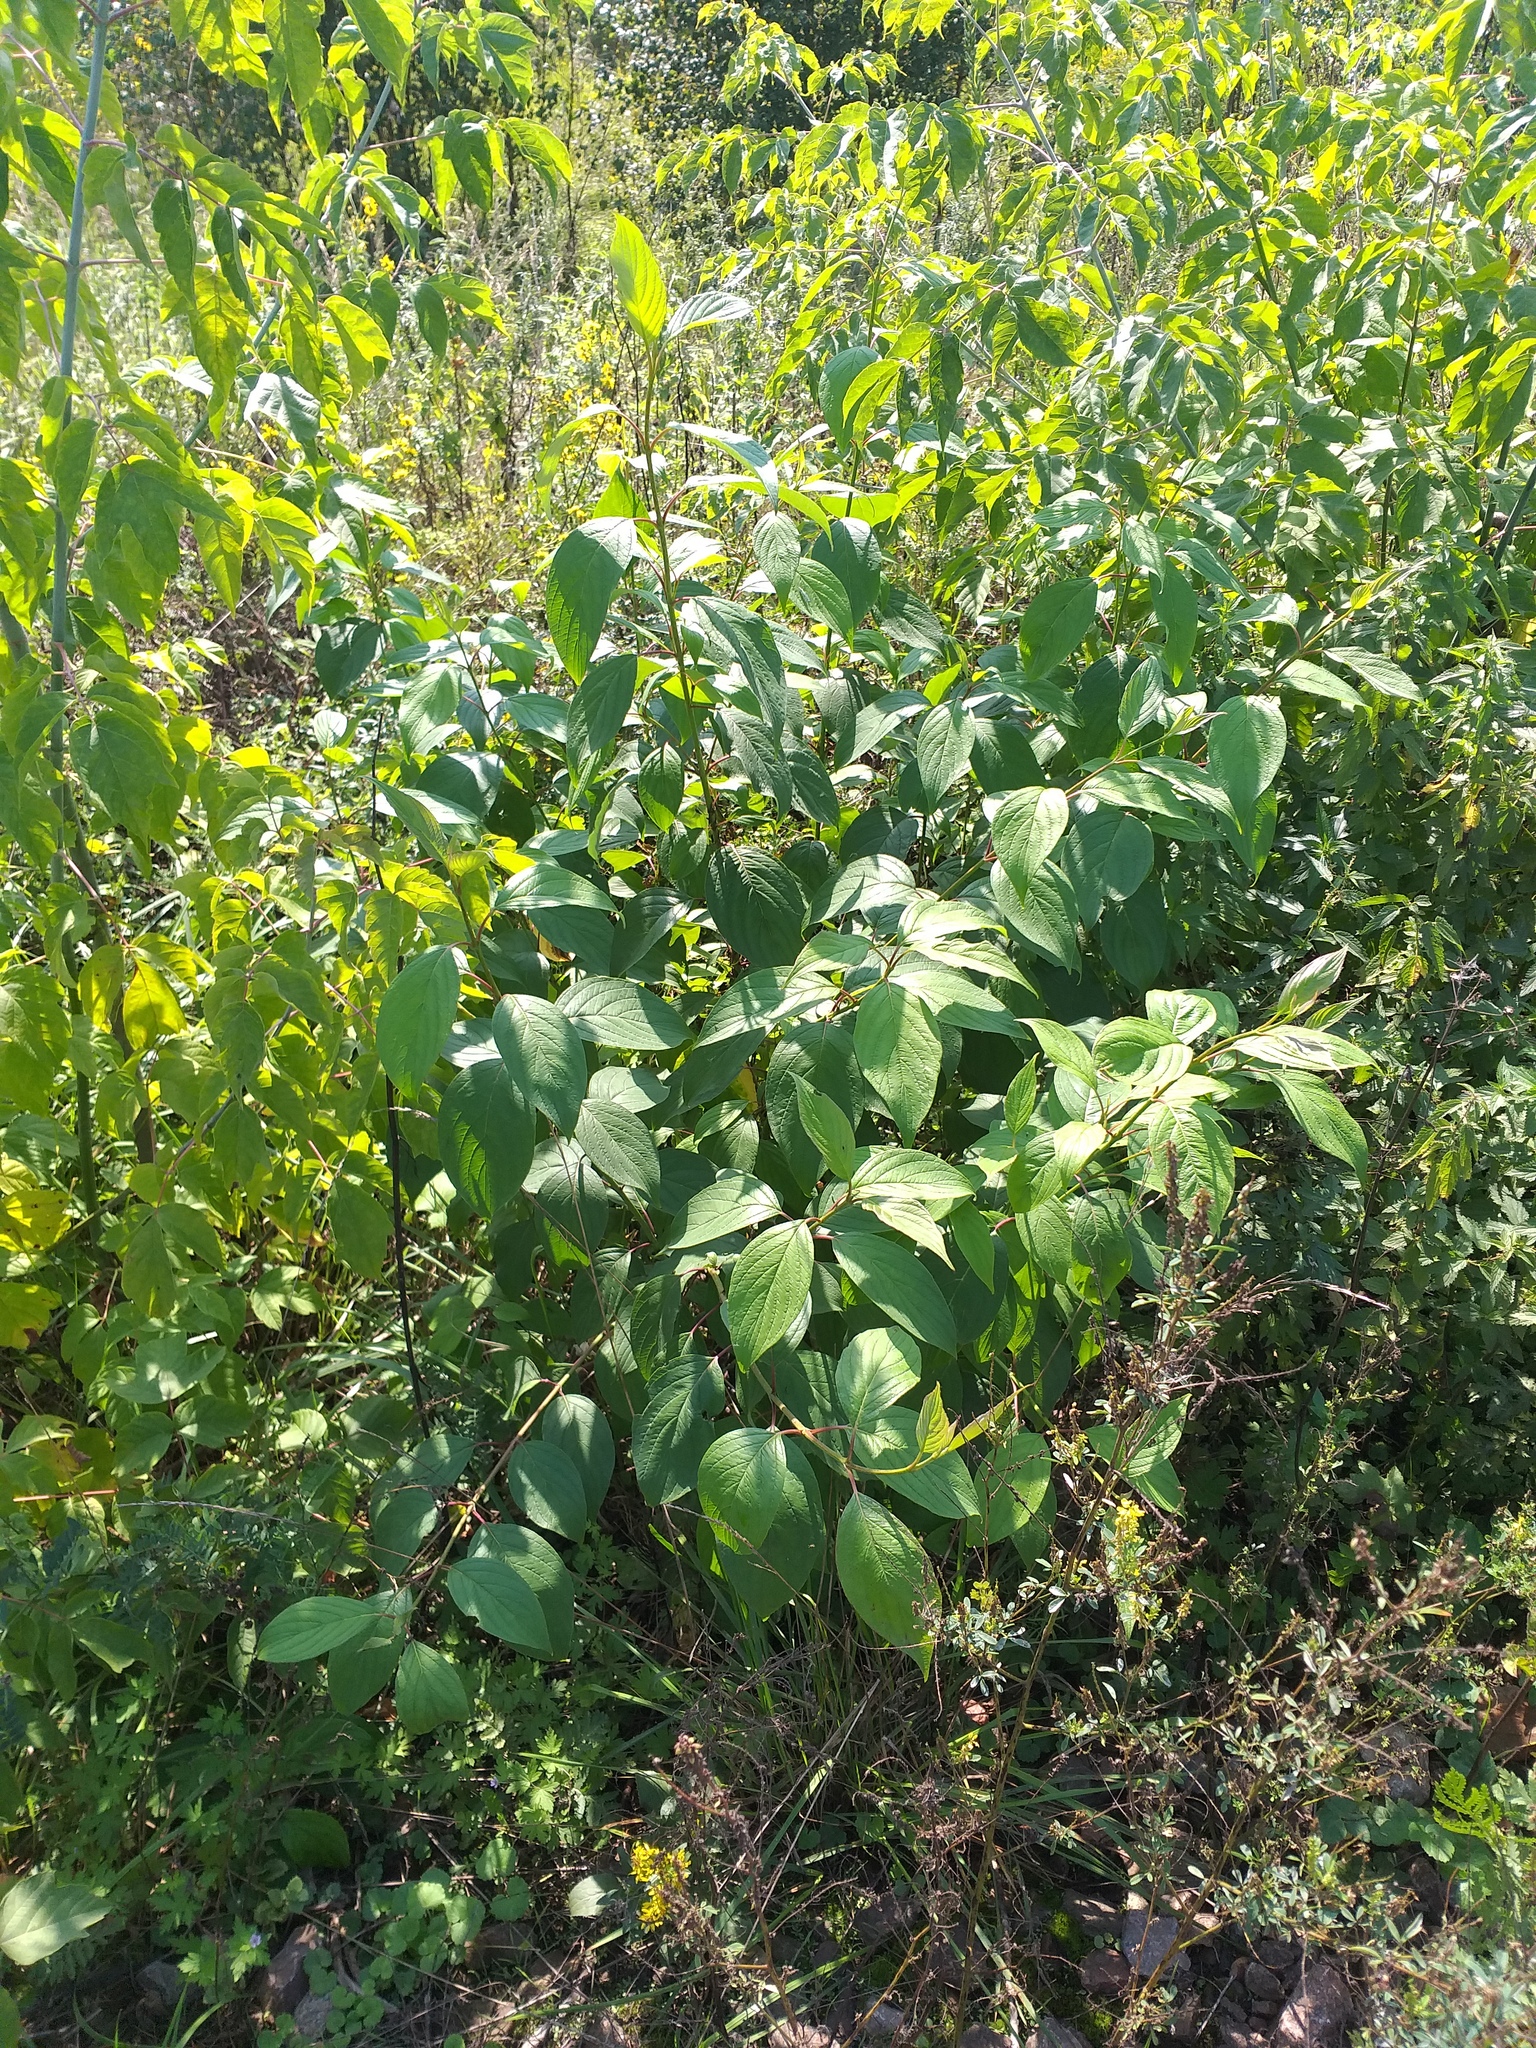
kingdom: Plantae
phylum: Tracheophyta
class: Magnoliopsida
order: Cornales
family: Cornaceae
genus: Cornus
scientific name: Cornus alba
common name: White dogwood
